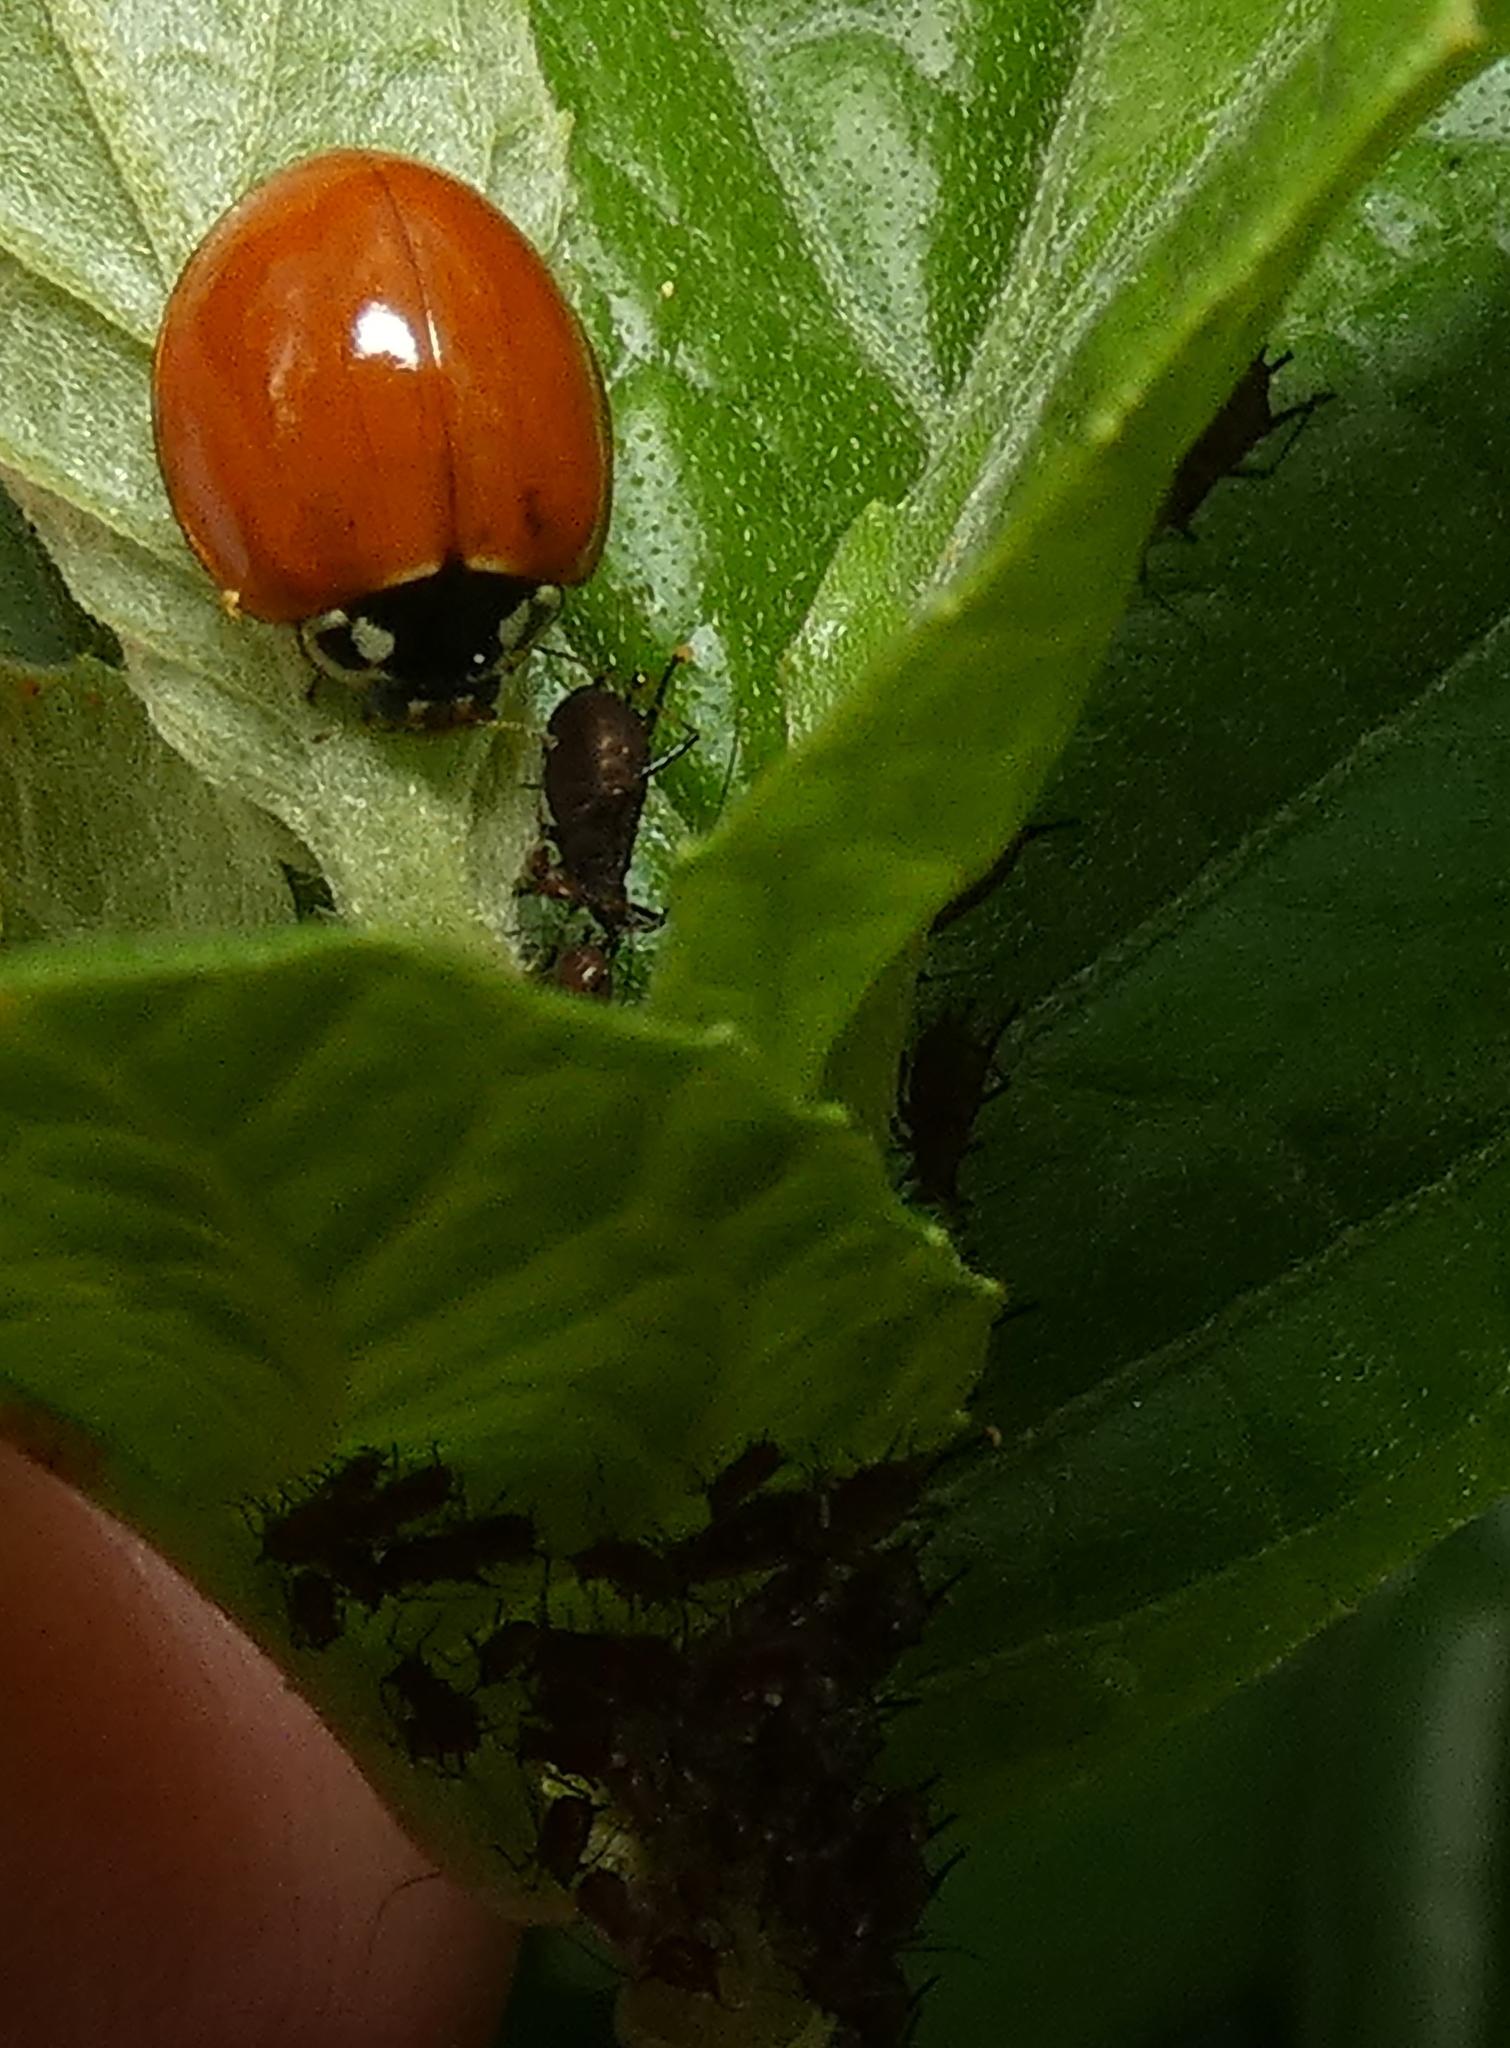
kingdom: Animalia
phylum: Arthropoda
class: Insecta
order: Coleoptera
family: Coccinellidae
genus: Cycloneda
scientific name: Cycloneda sanguinea
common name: Ladybird beetle
